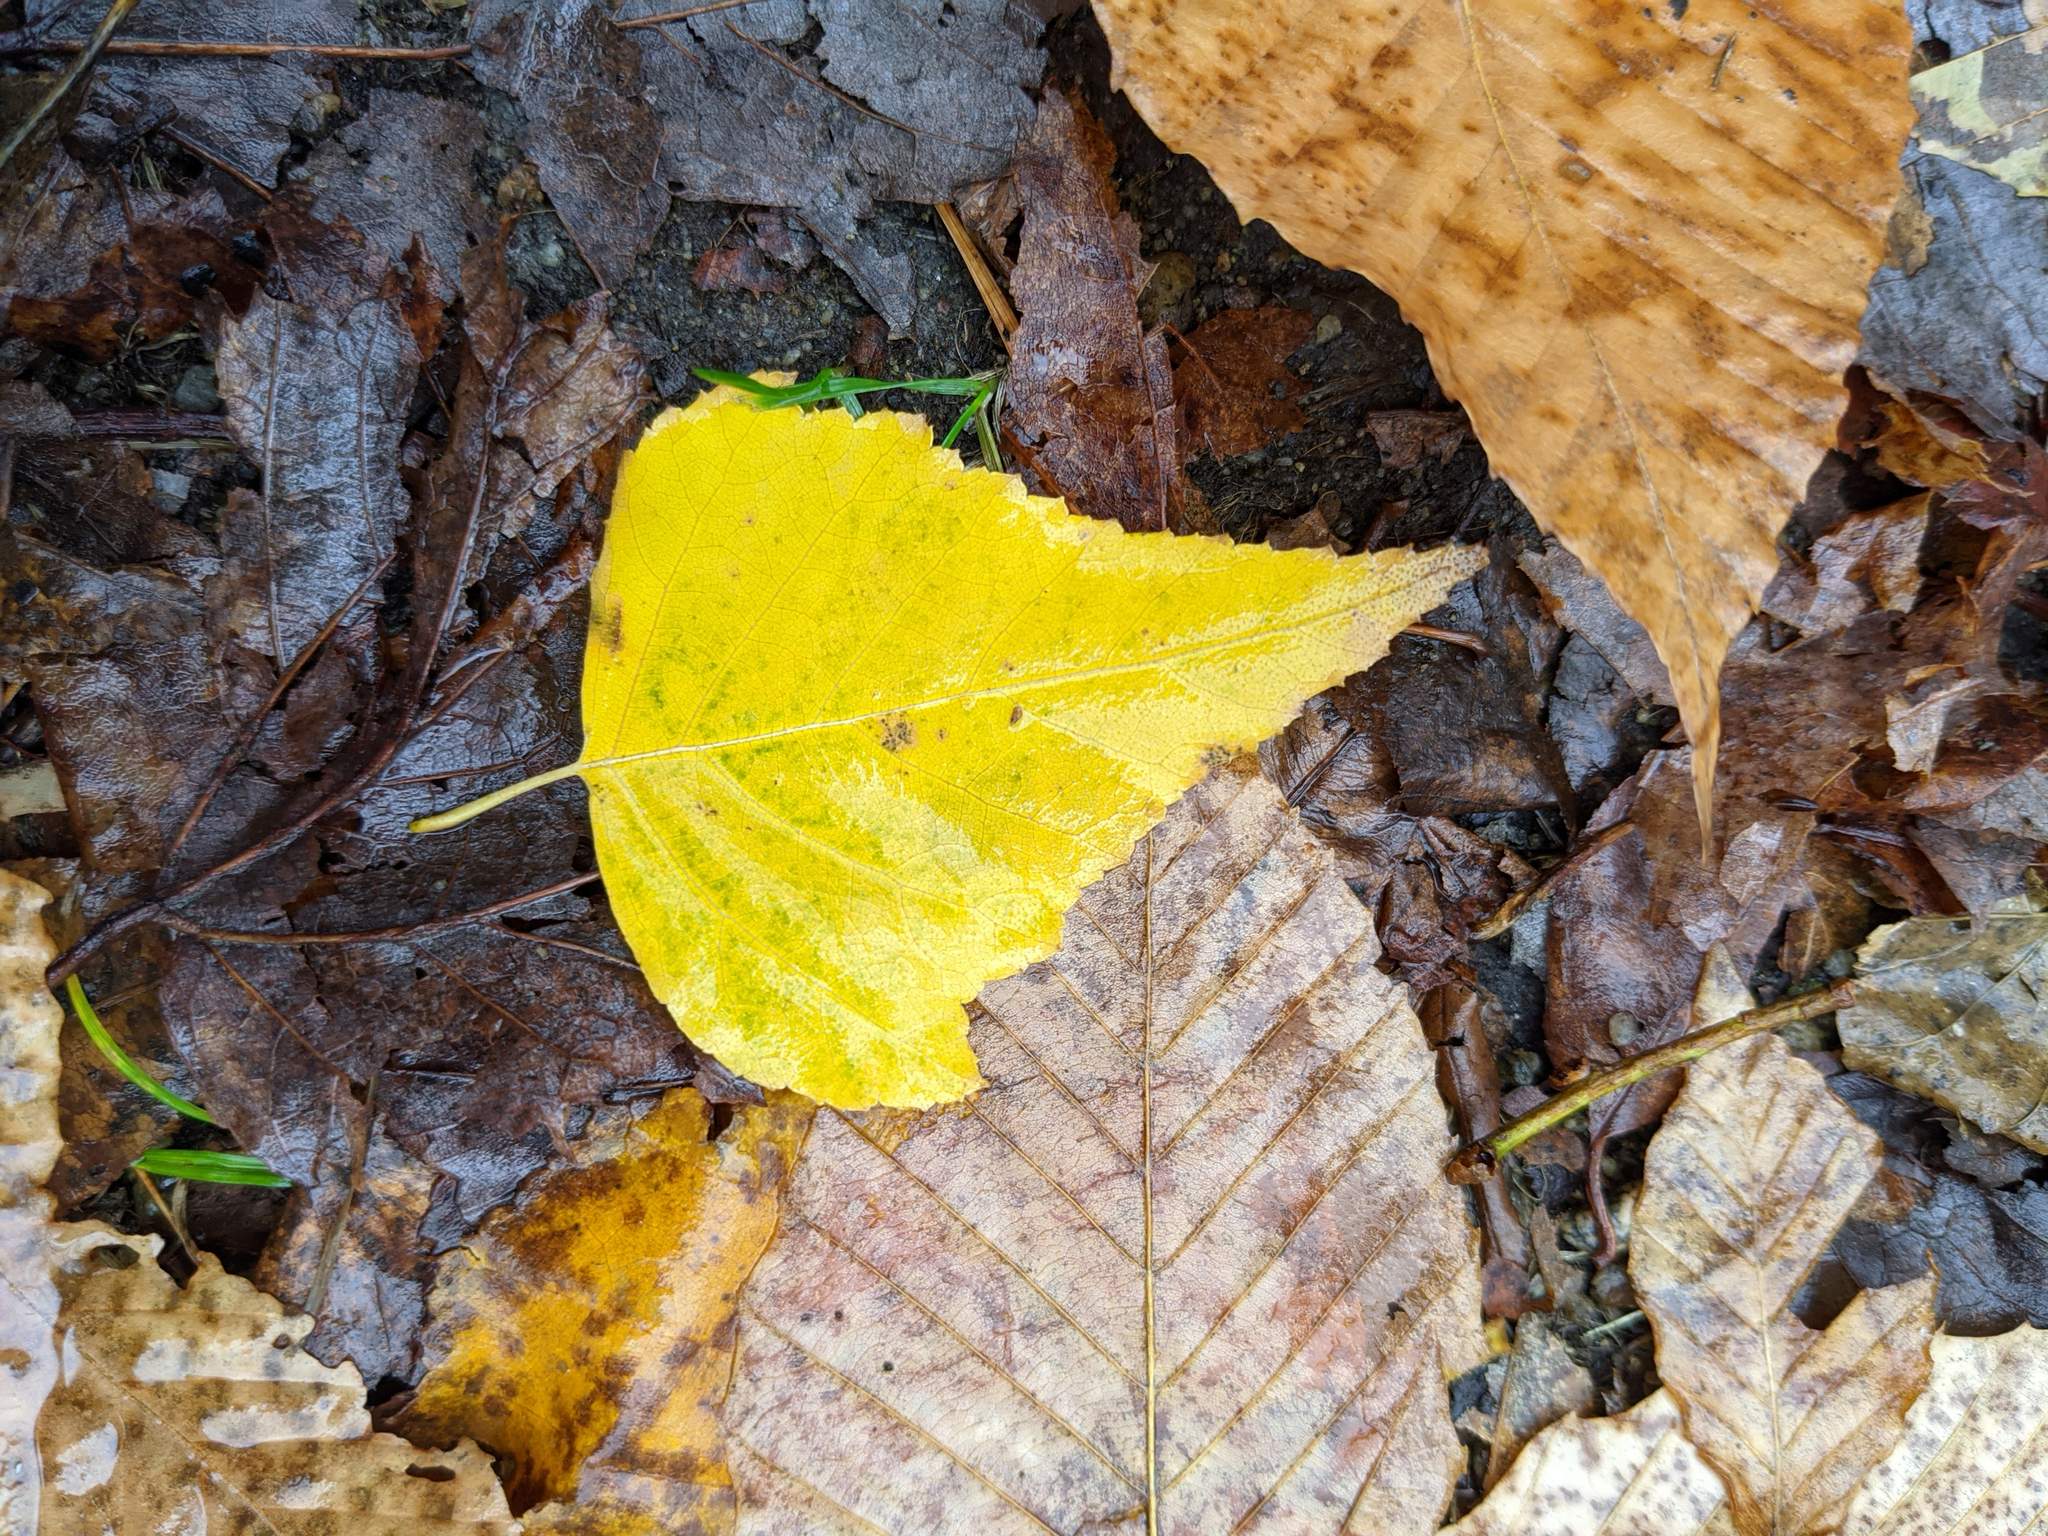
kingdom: Plantae
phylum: Tracheophyta
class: Magnoliopsida
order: Fagales
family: Betulaceae
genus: Betula
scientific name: Betula populifolia
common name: Fire birch
